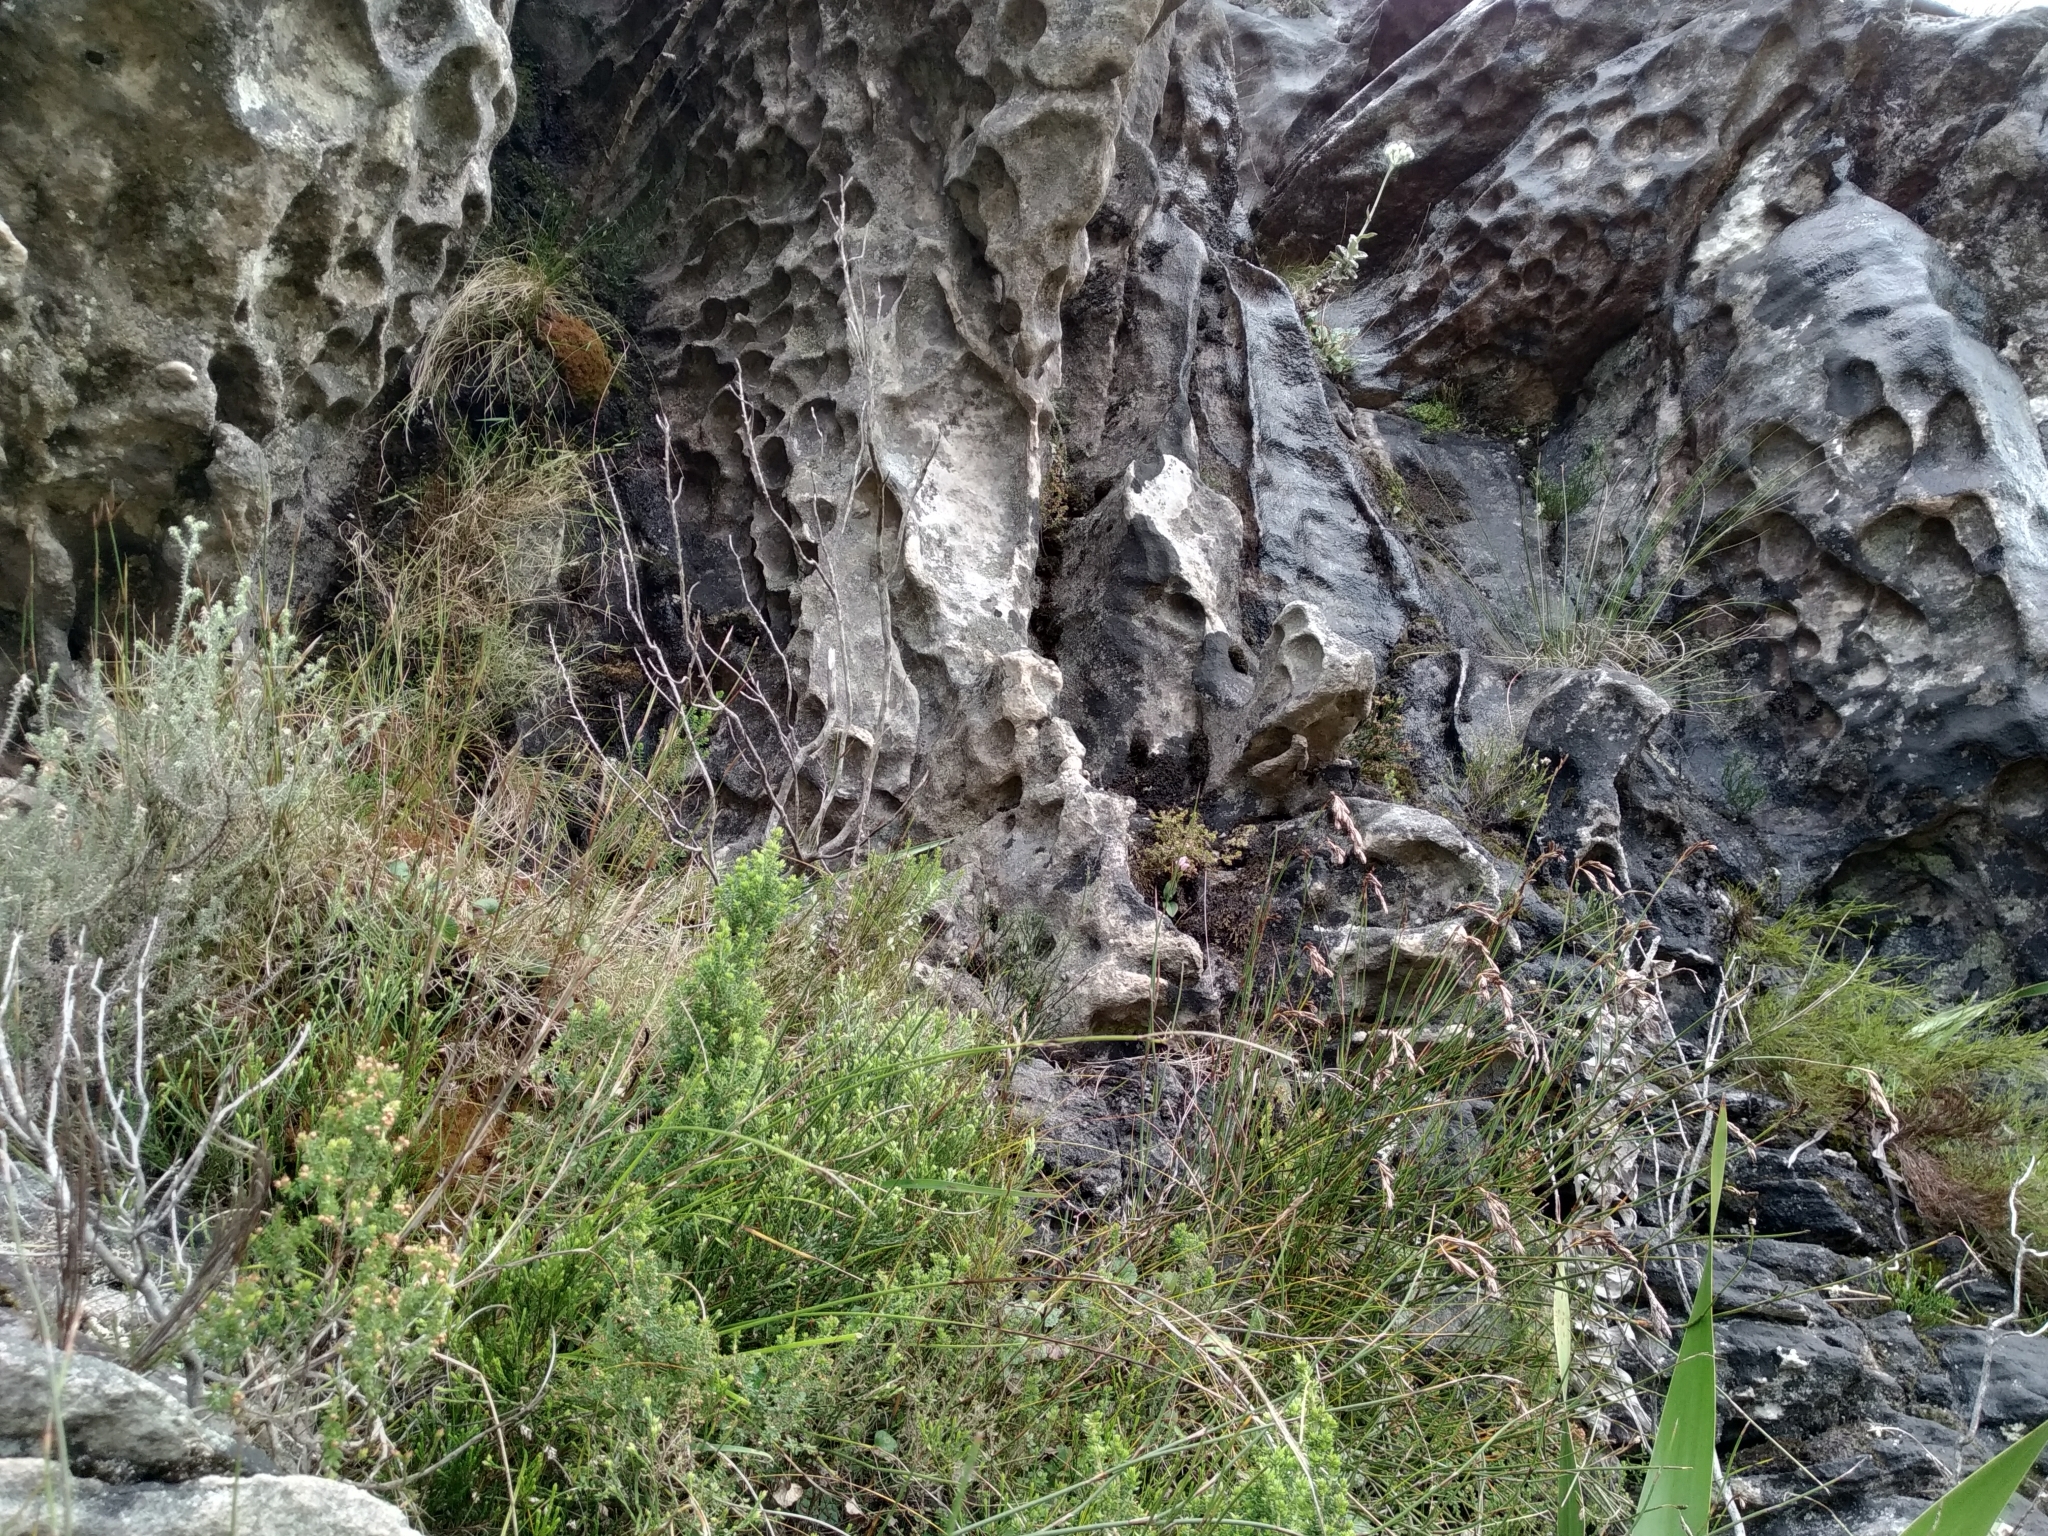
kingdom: Plantae
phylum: Tracheophyta
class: Liliopsida
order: Asparagales
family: Orchidaceae
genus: Disa
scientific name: Disa rosea
